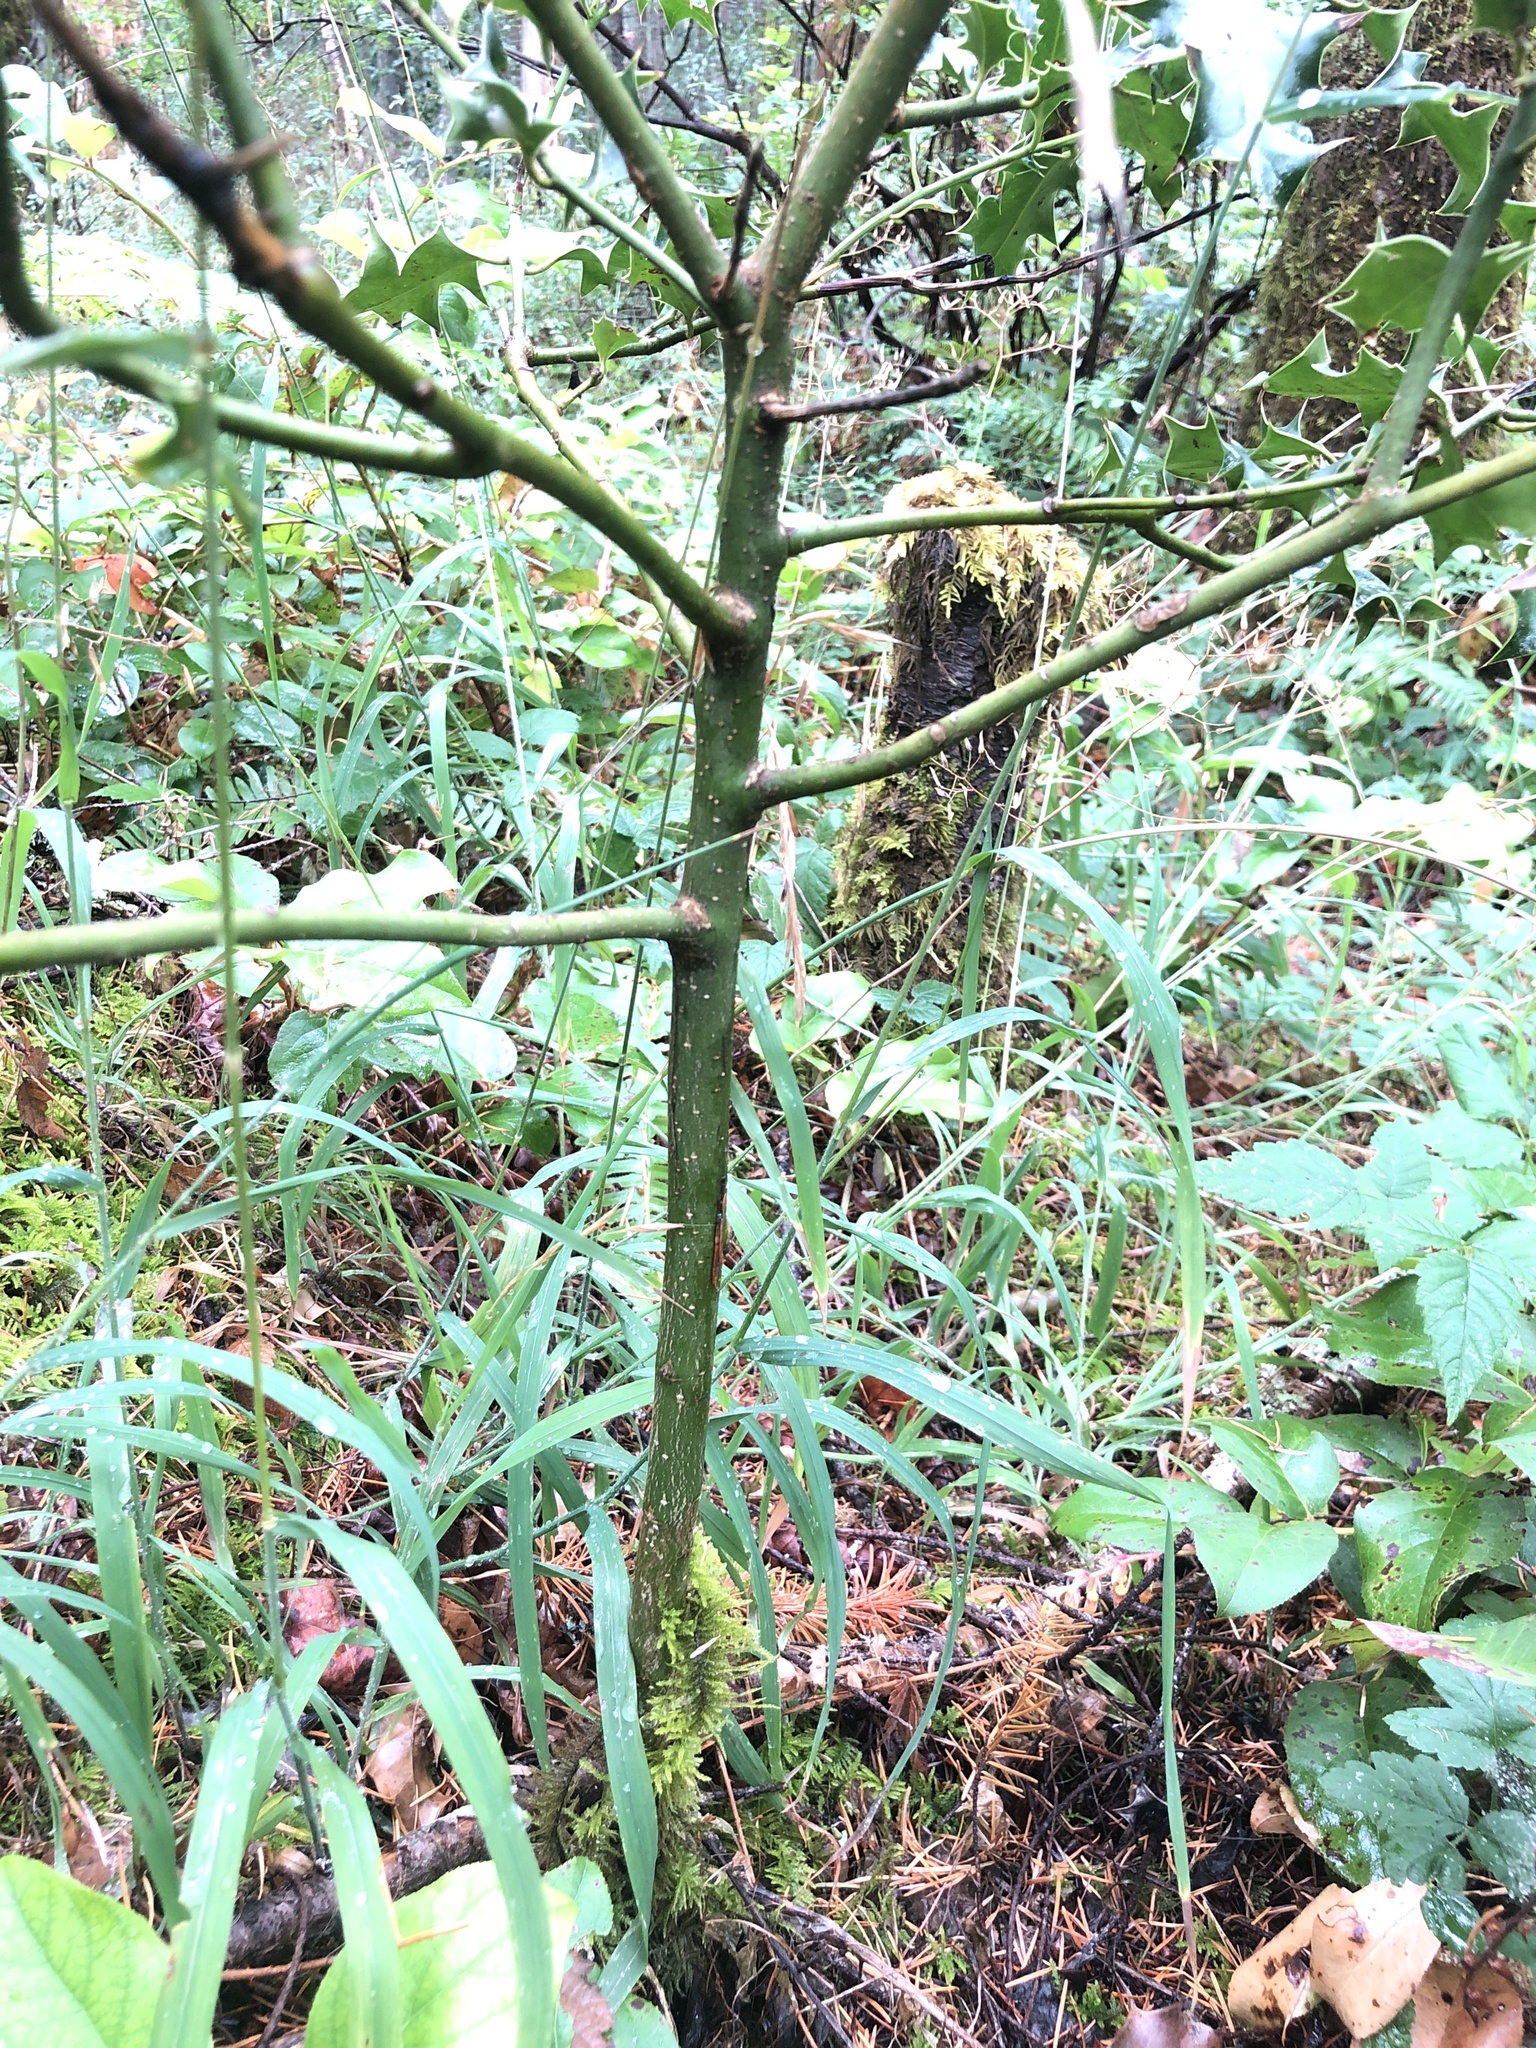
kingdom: Plantae
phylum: Tracheophyta
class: Magnoliopsida
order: Aquifoliales
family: Aquifoliaceae
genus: Ilex
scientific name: Ilex aquifolium
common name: English holly
